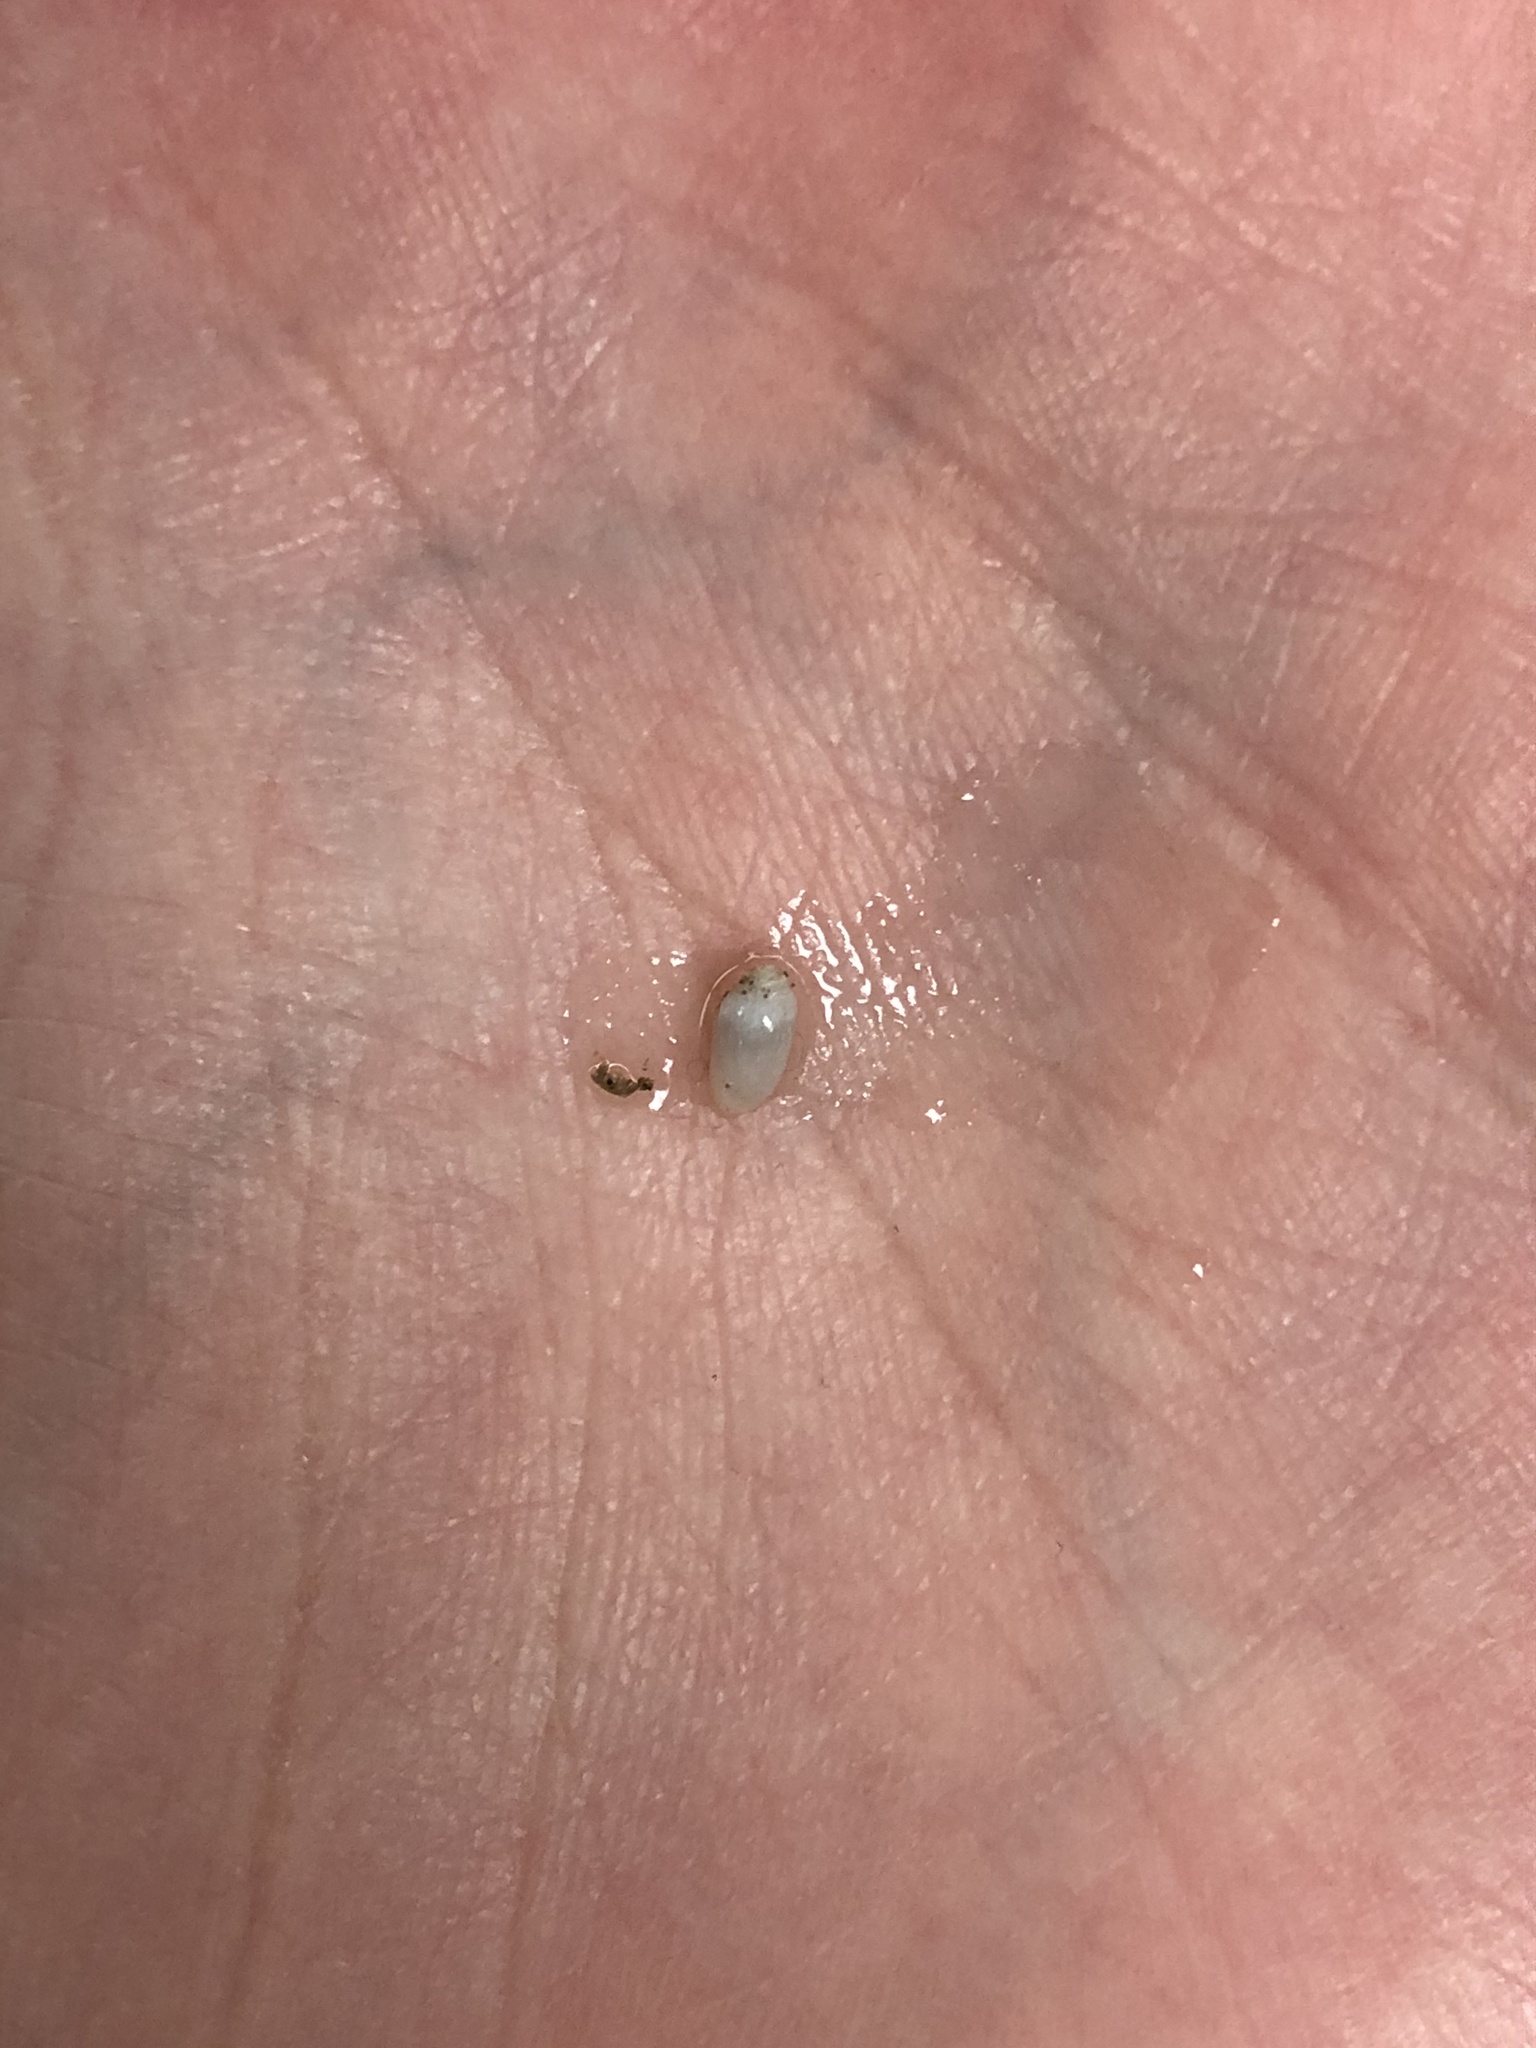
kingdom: Animalia
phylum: Mollusca
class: Gastropoda
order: Cephalaspidea
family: Tornatinidae
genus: Acteocina
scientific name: Acteocina canaliculata
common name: Channeled barrel-bubble
